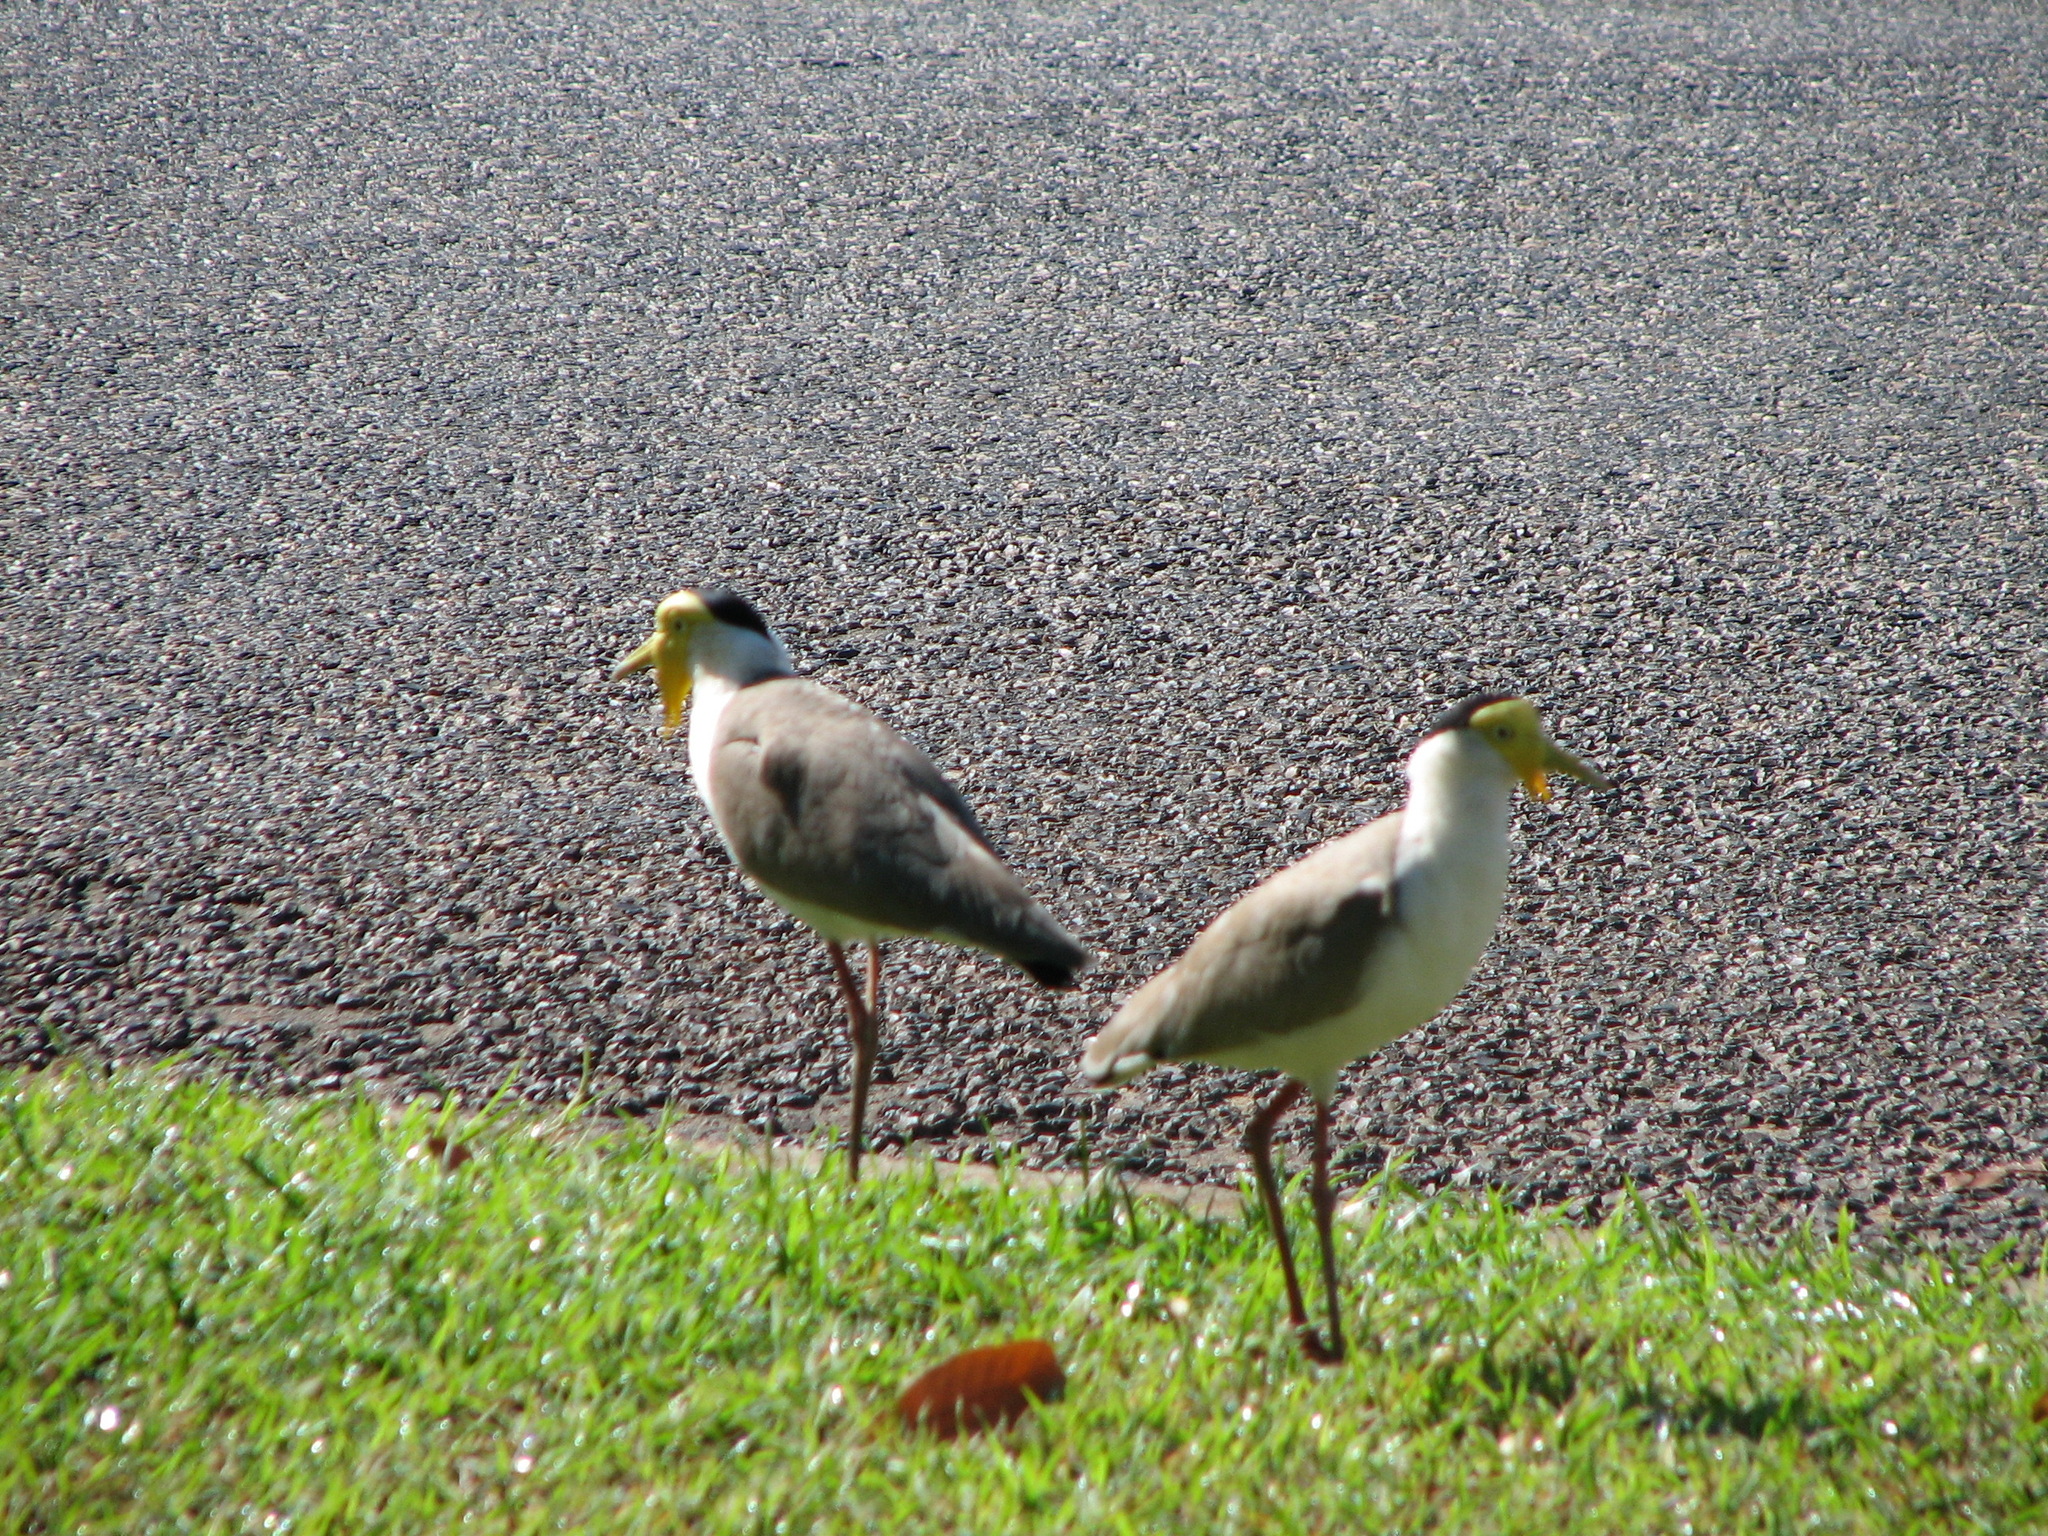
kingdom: Animalia
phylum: Chordata
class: Aves
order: Charadriiformes
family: Charadriidae
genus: Vanellus
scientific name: Vanellus miles
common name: Masked lapwing
